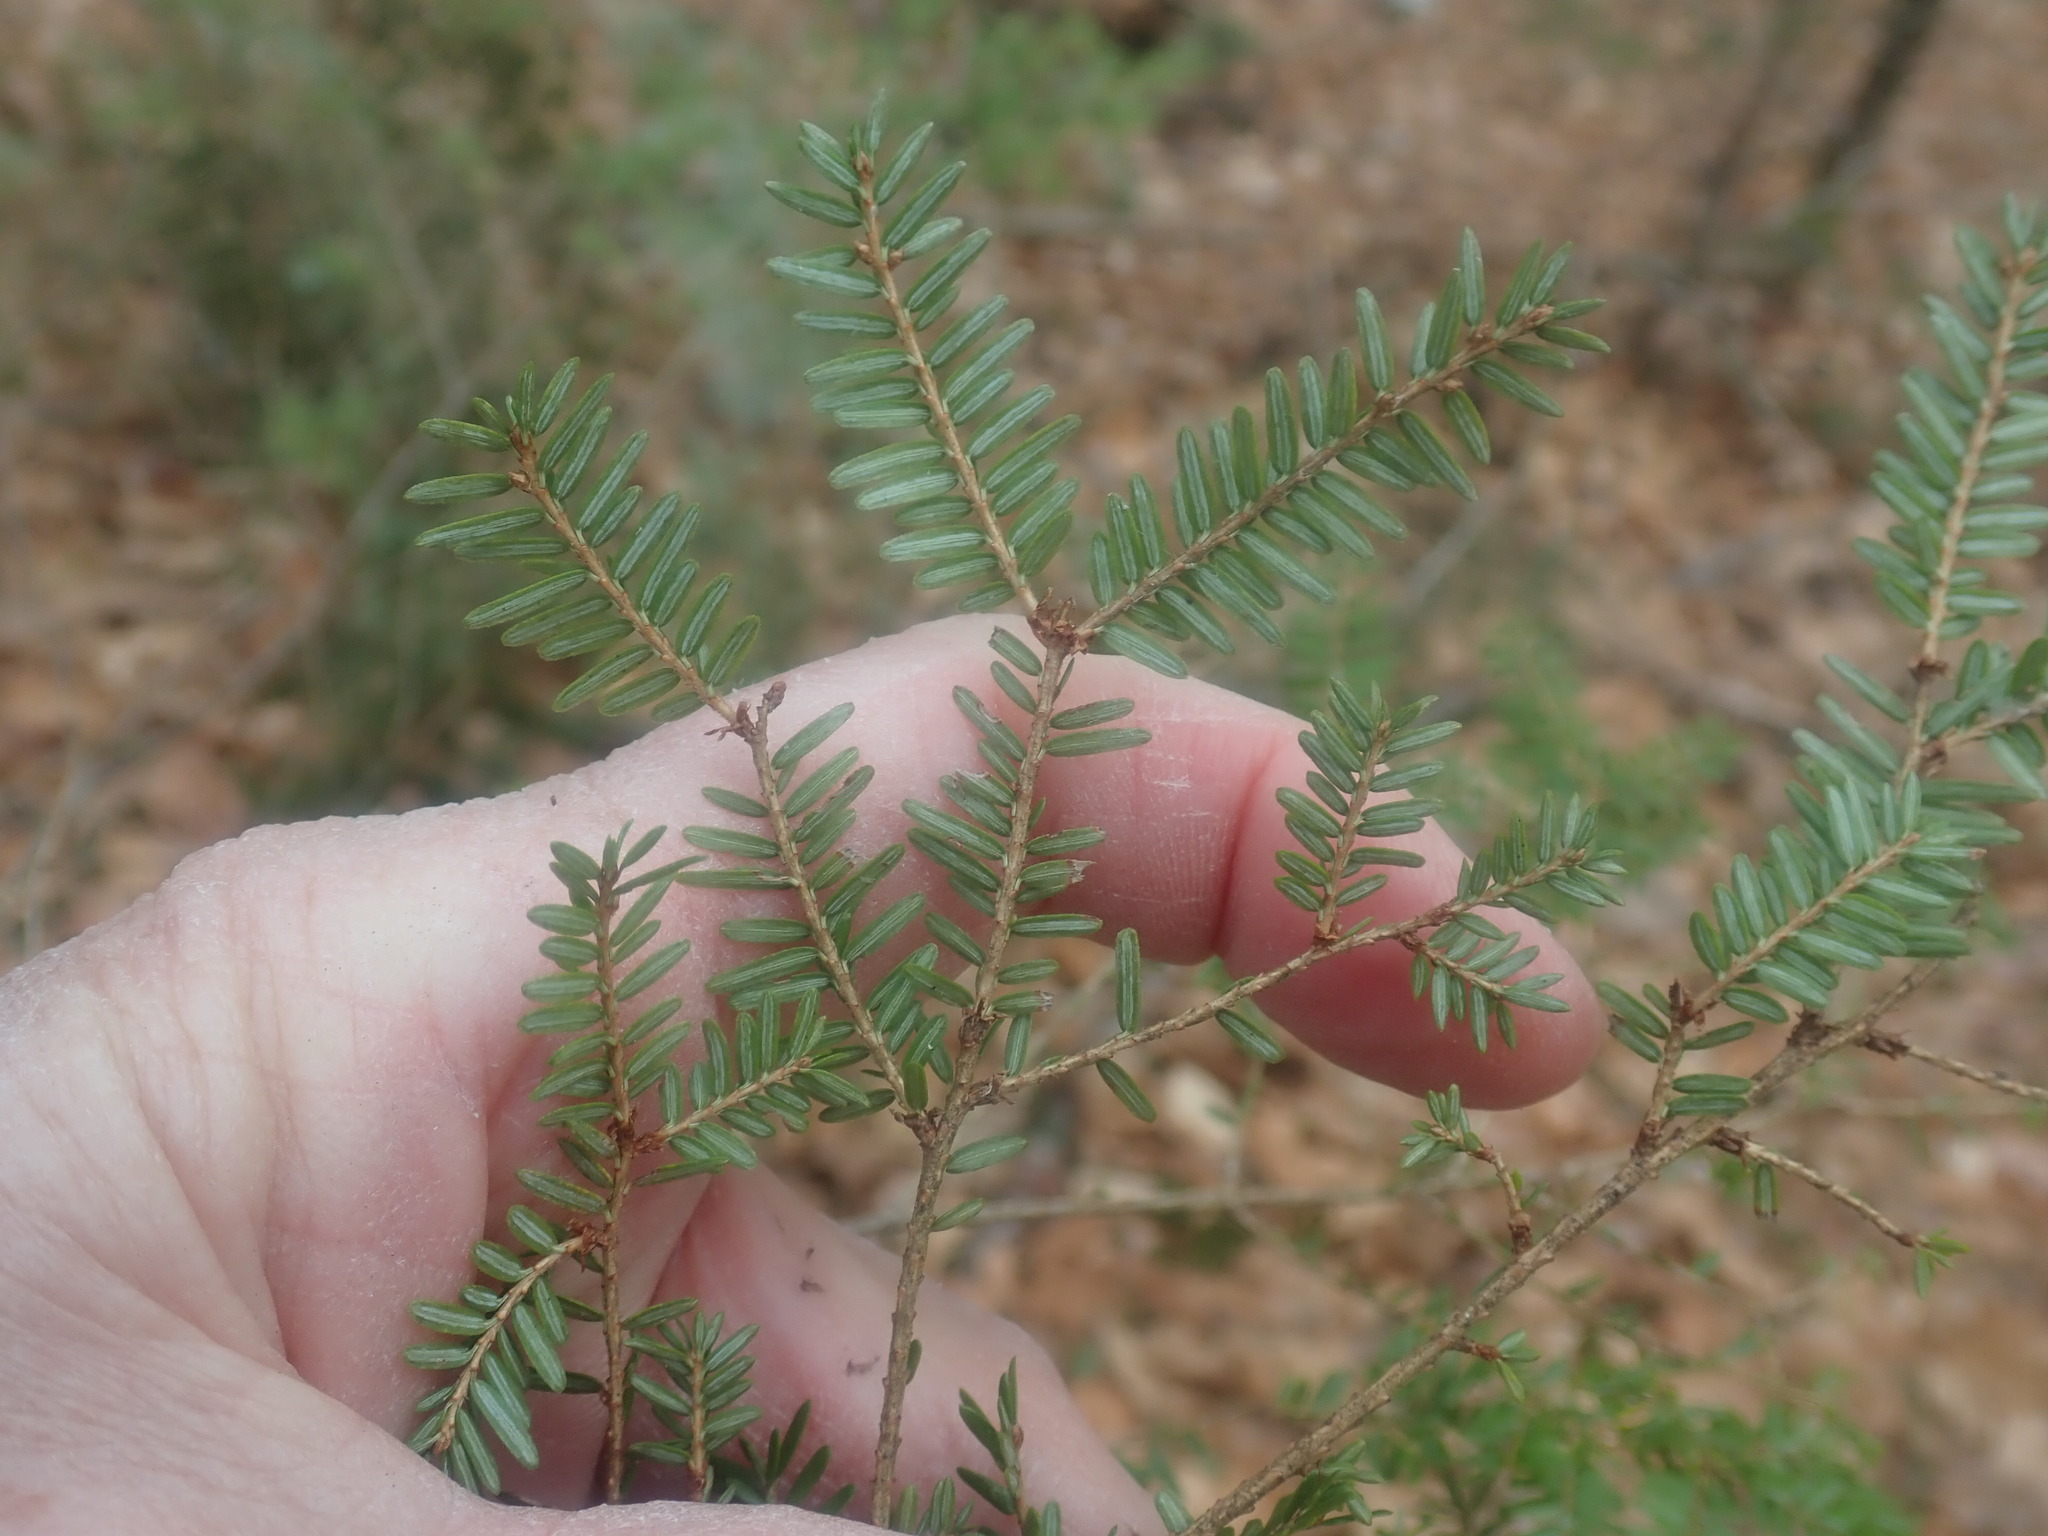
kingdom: Plantae
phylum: Tracheophyta
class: Pinopsida
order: Pinales
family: Pinaceae
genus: Tsuga
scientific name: Tsuga canadensis
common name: Eastern hemlock
